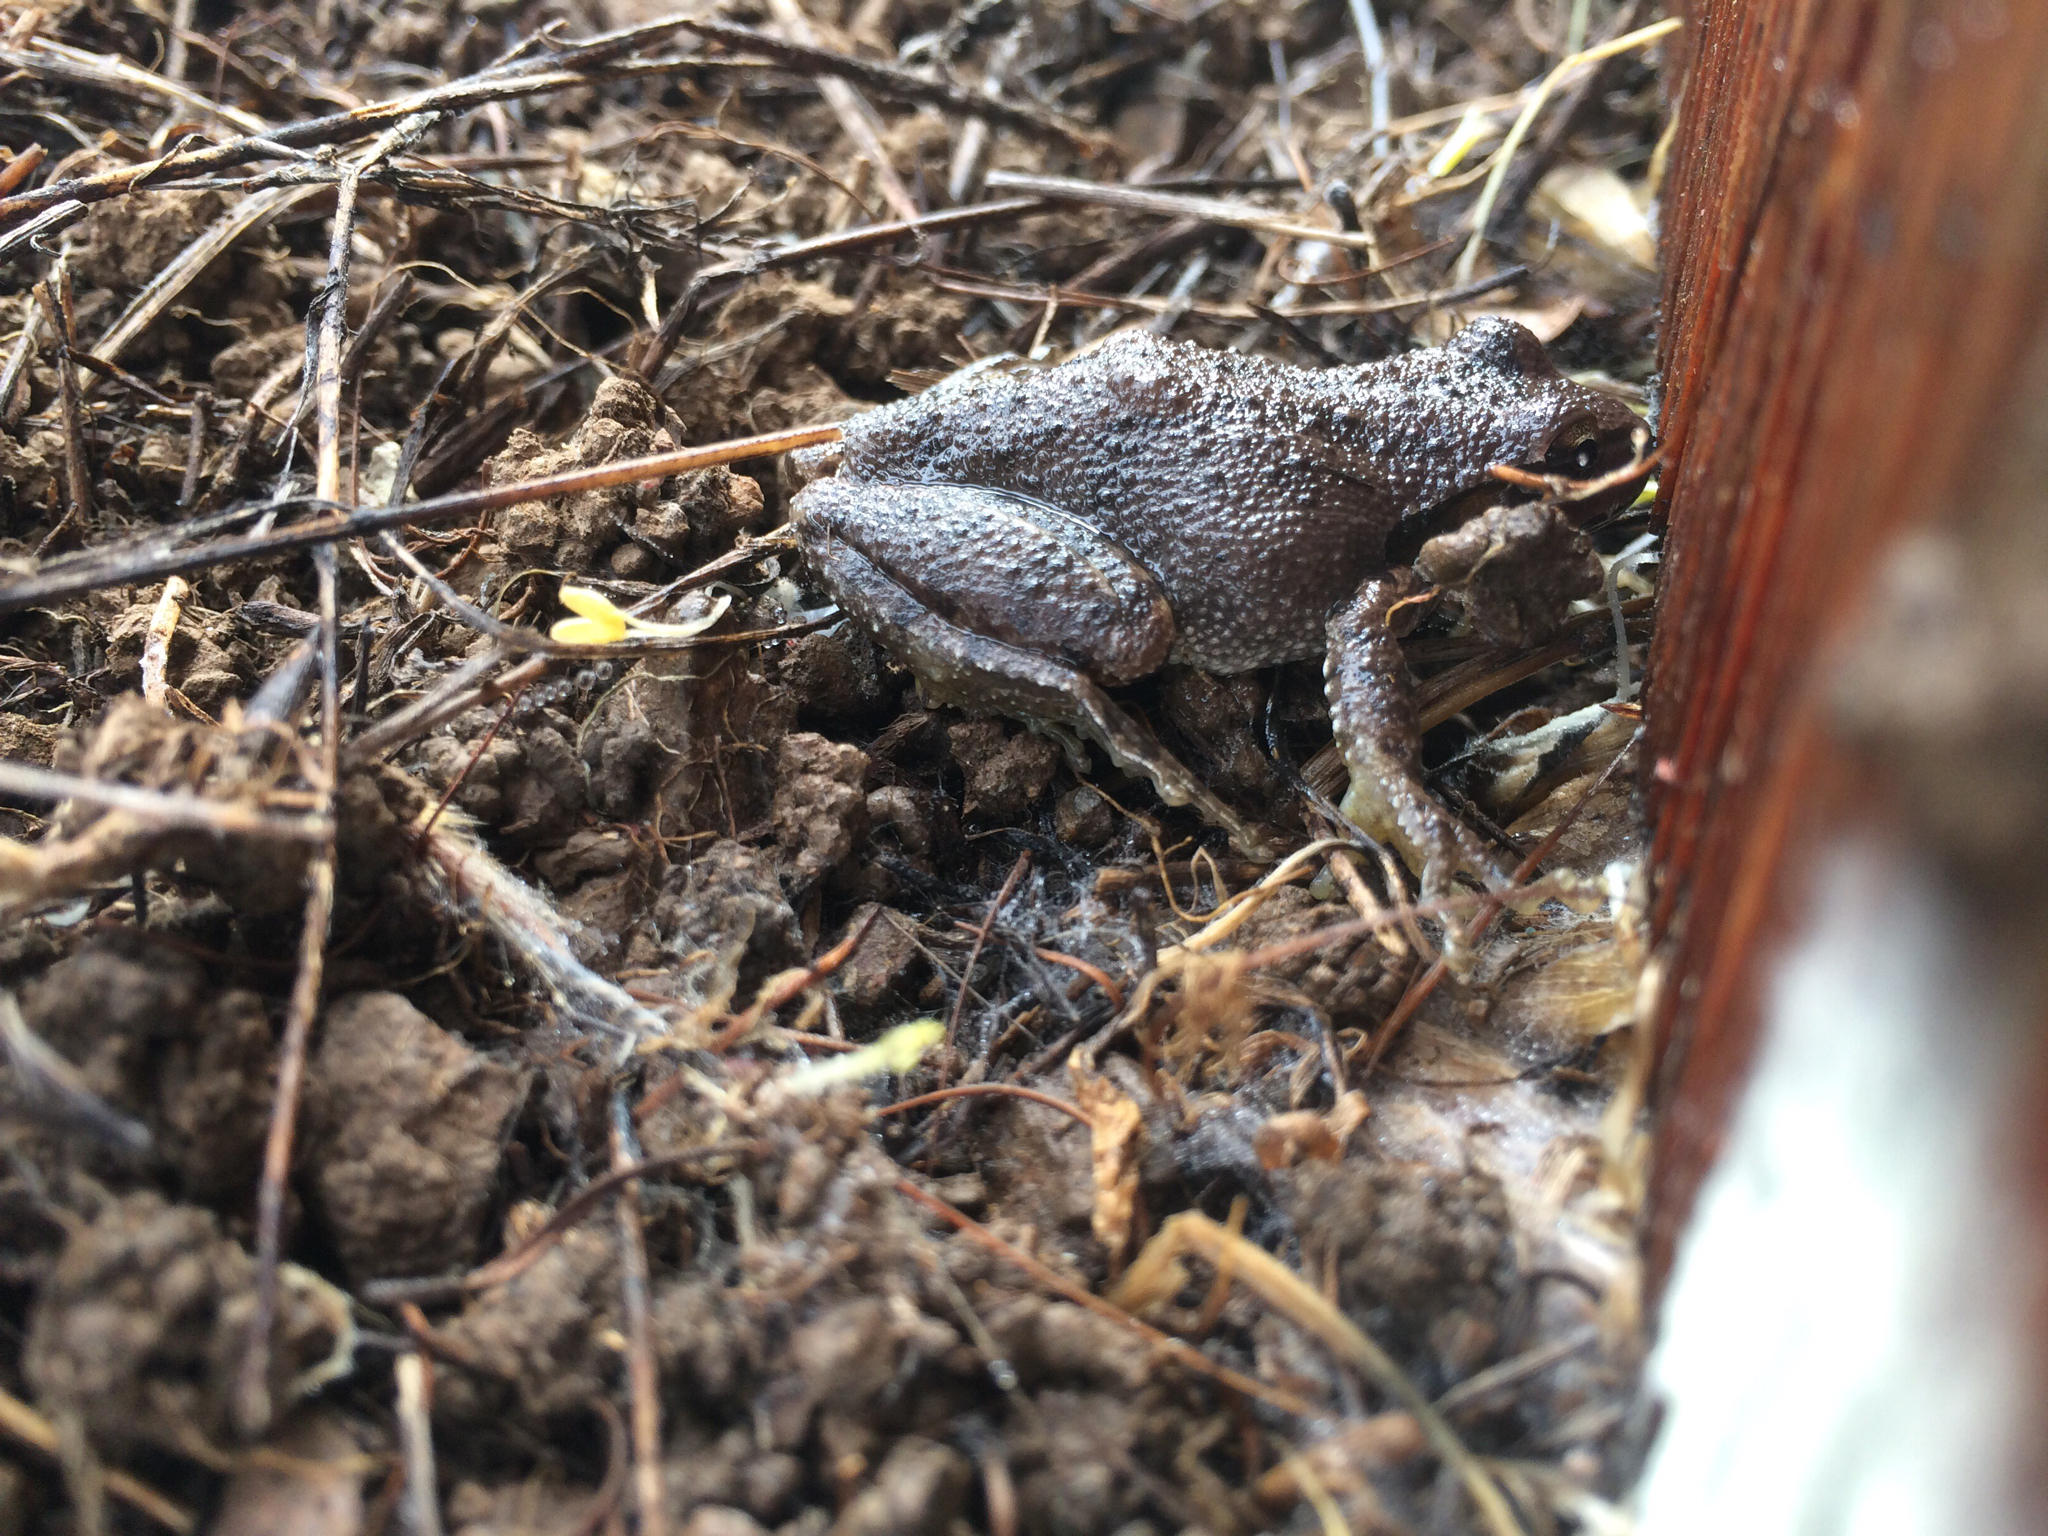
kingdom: Animalia
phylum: Chordata
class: Amphibia
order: Anura
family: Hylidae
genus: Pseudacris
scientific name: Pseudacris regilla
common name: Pacific chorus frog
